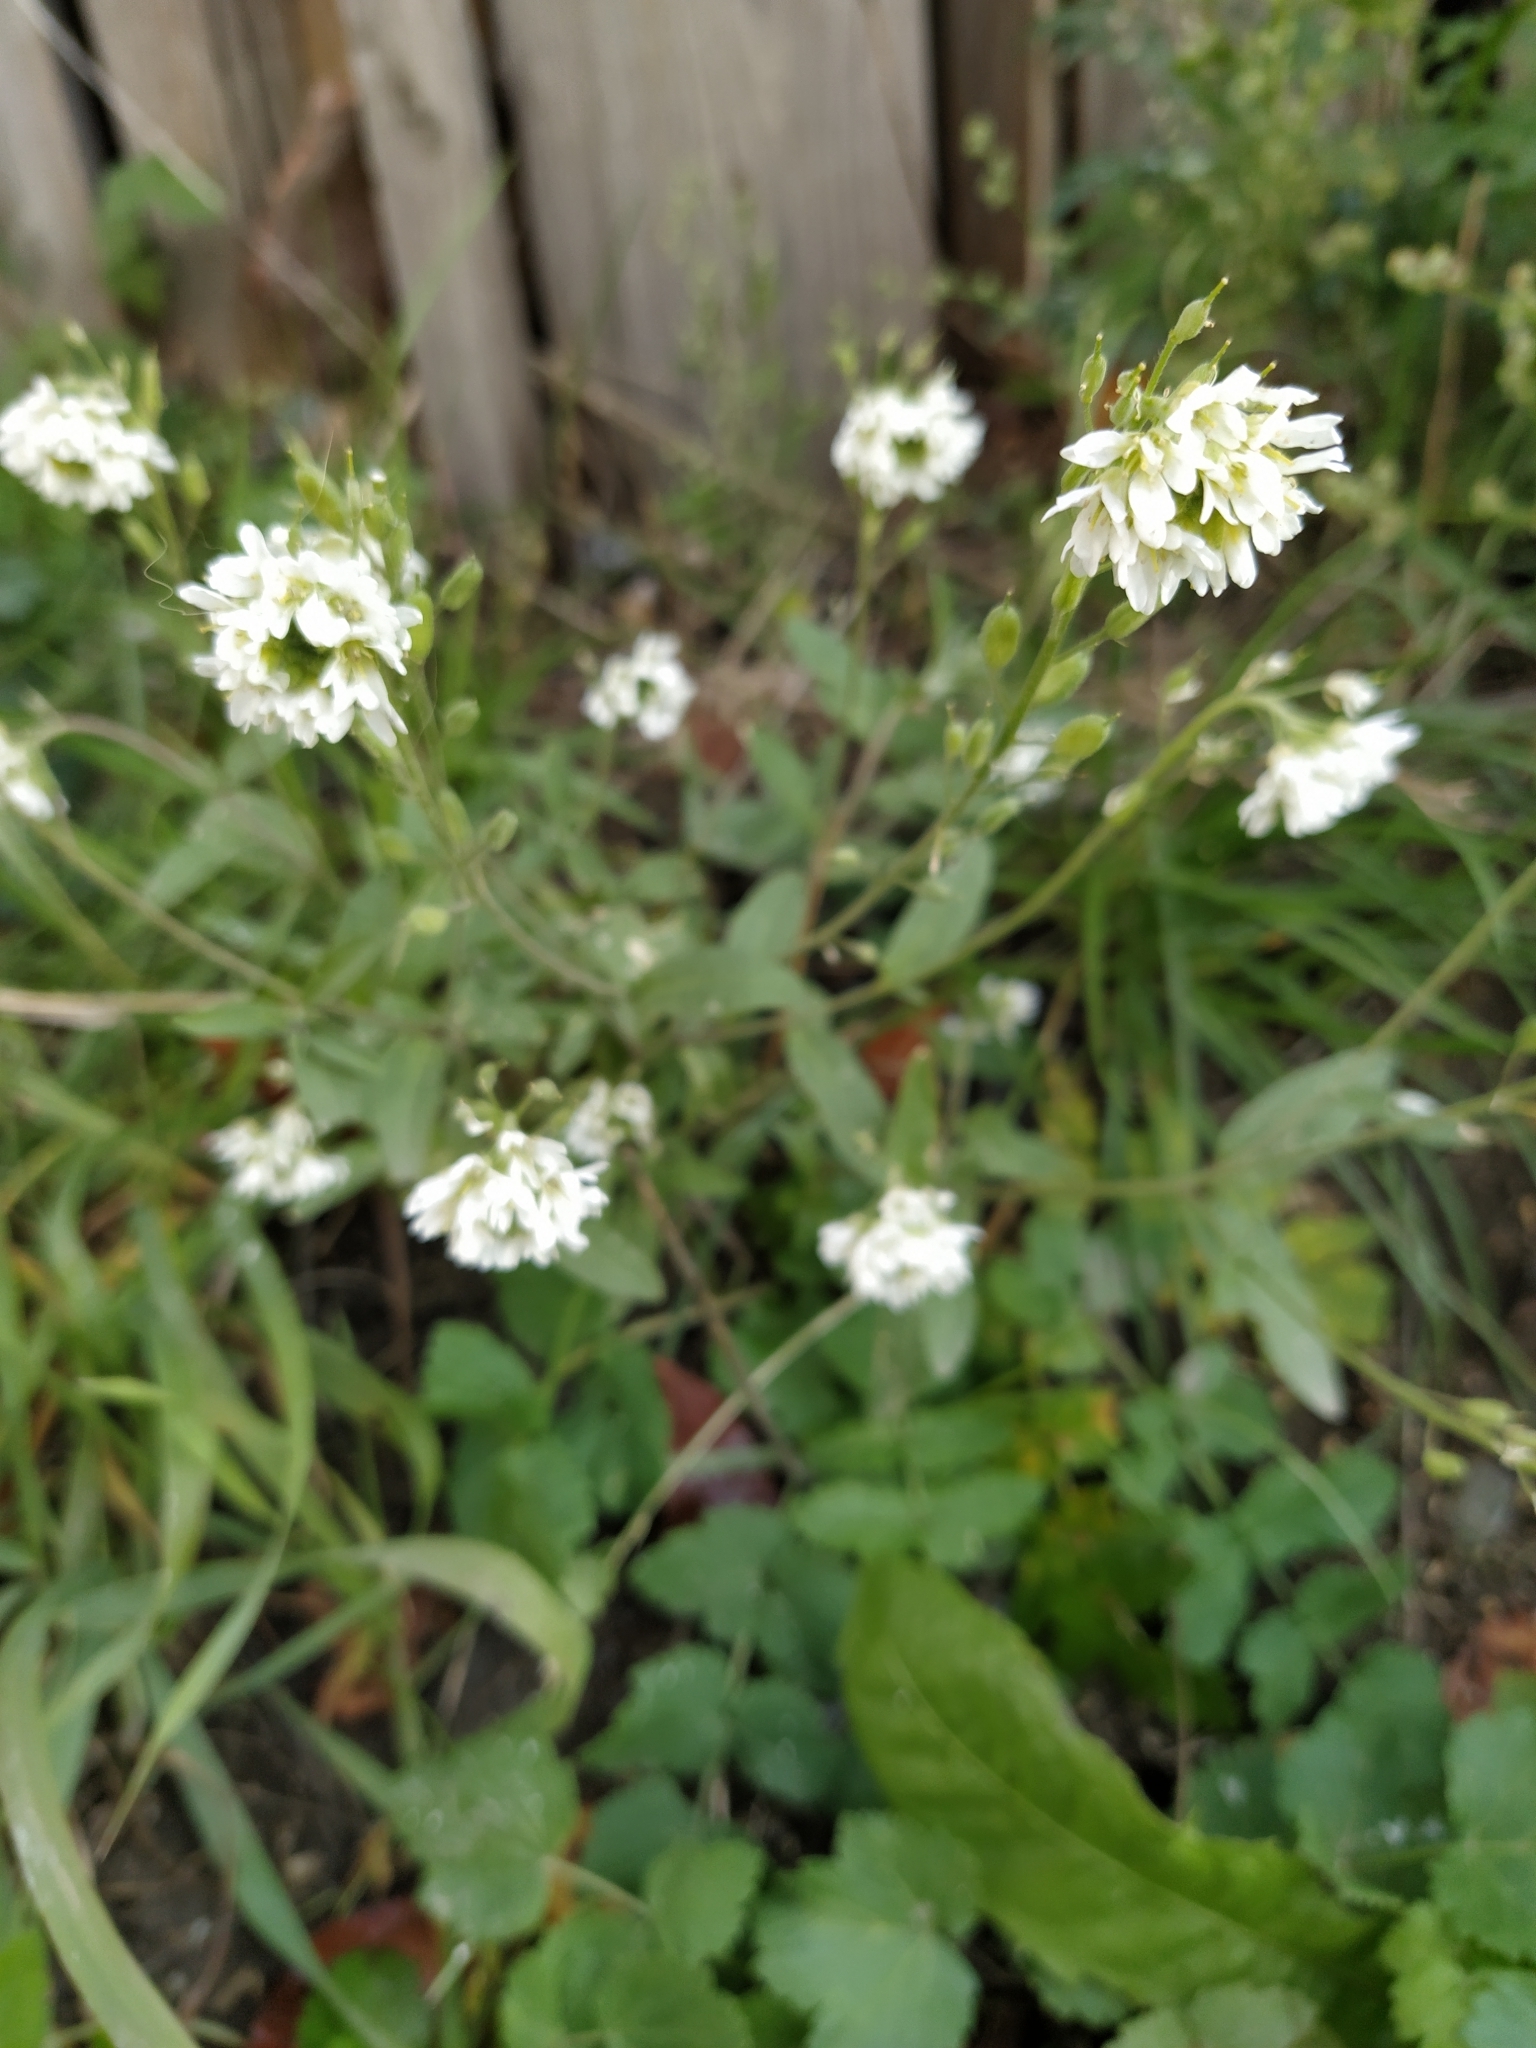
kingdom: Plantae
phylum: Tracheophyta
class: Magnoliopsida
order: Brassicales
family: Brassicaceae
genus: Berteroa
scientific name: Berteroa incana
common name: Hoary alison
